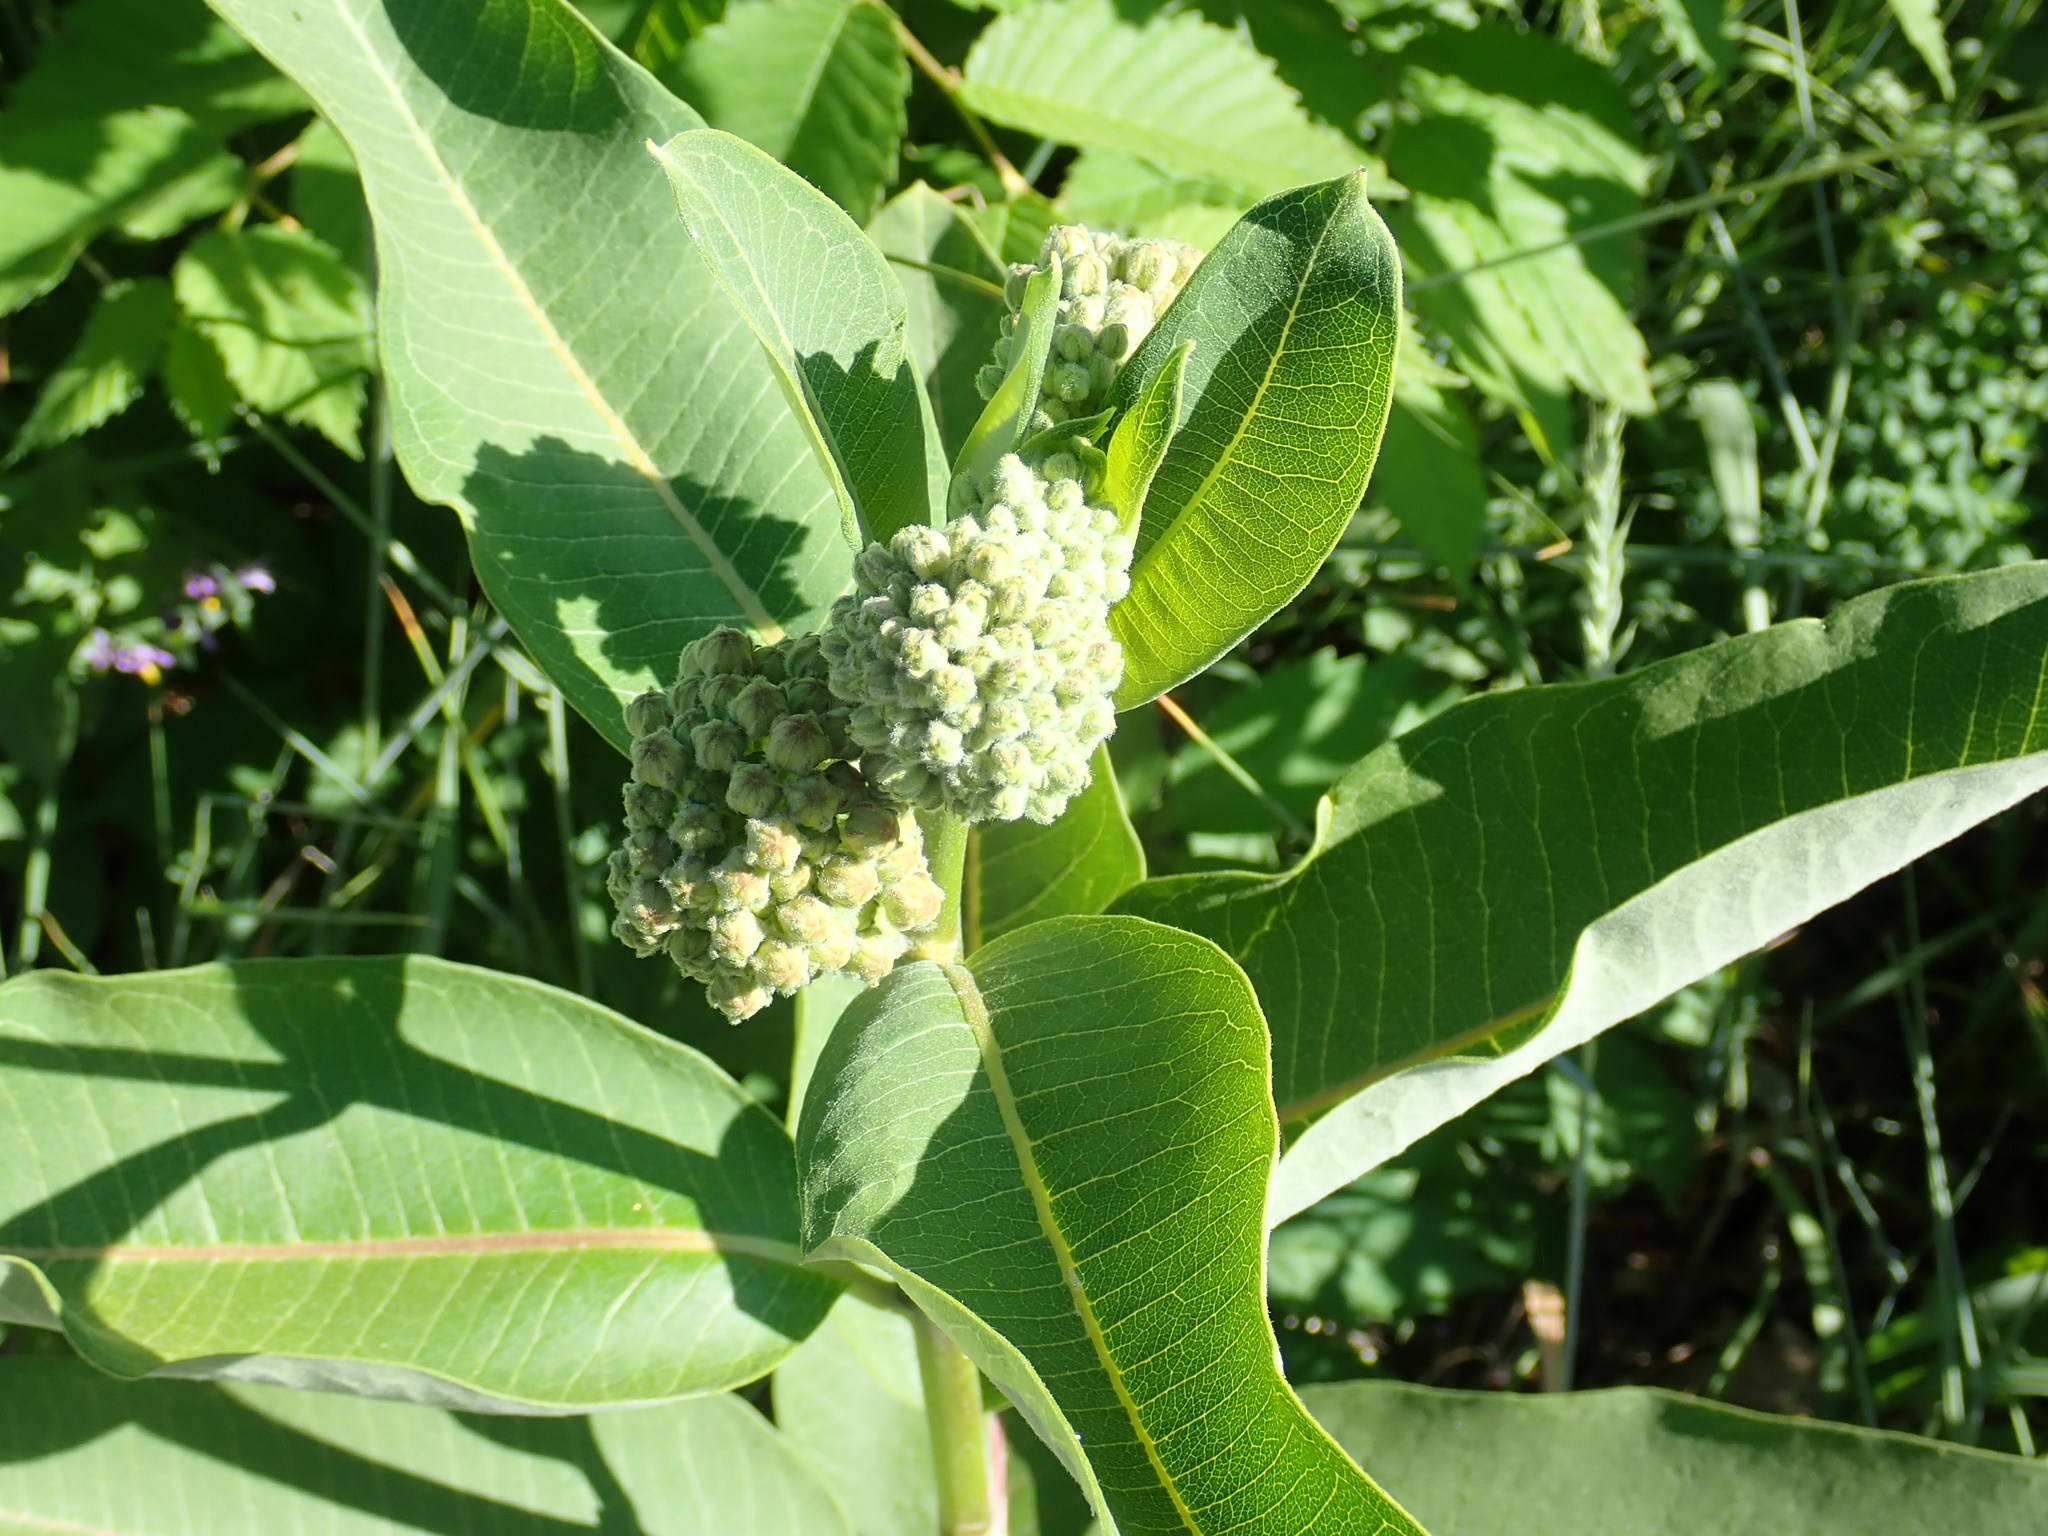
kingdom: Plantae
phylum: Tracheophyta
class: Magnoliopsida
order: Gentianales
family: Apocynaceae
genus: Asclepias
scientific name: Asclepias syriaca
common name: Common milkweed
